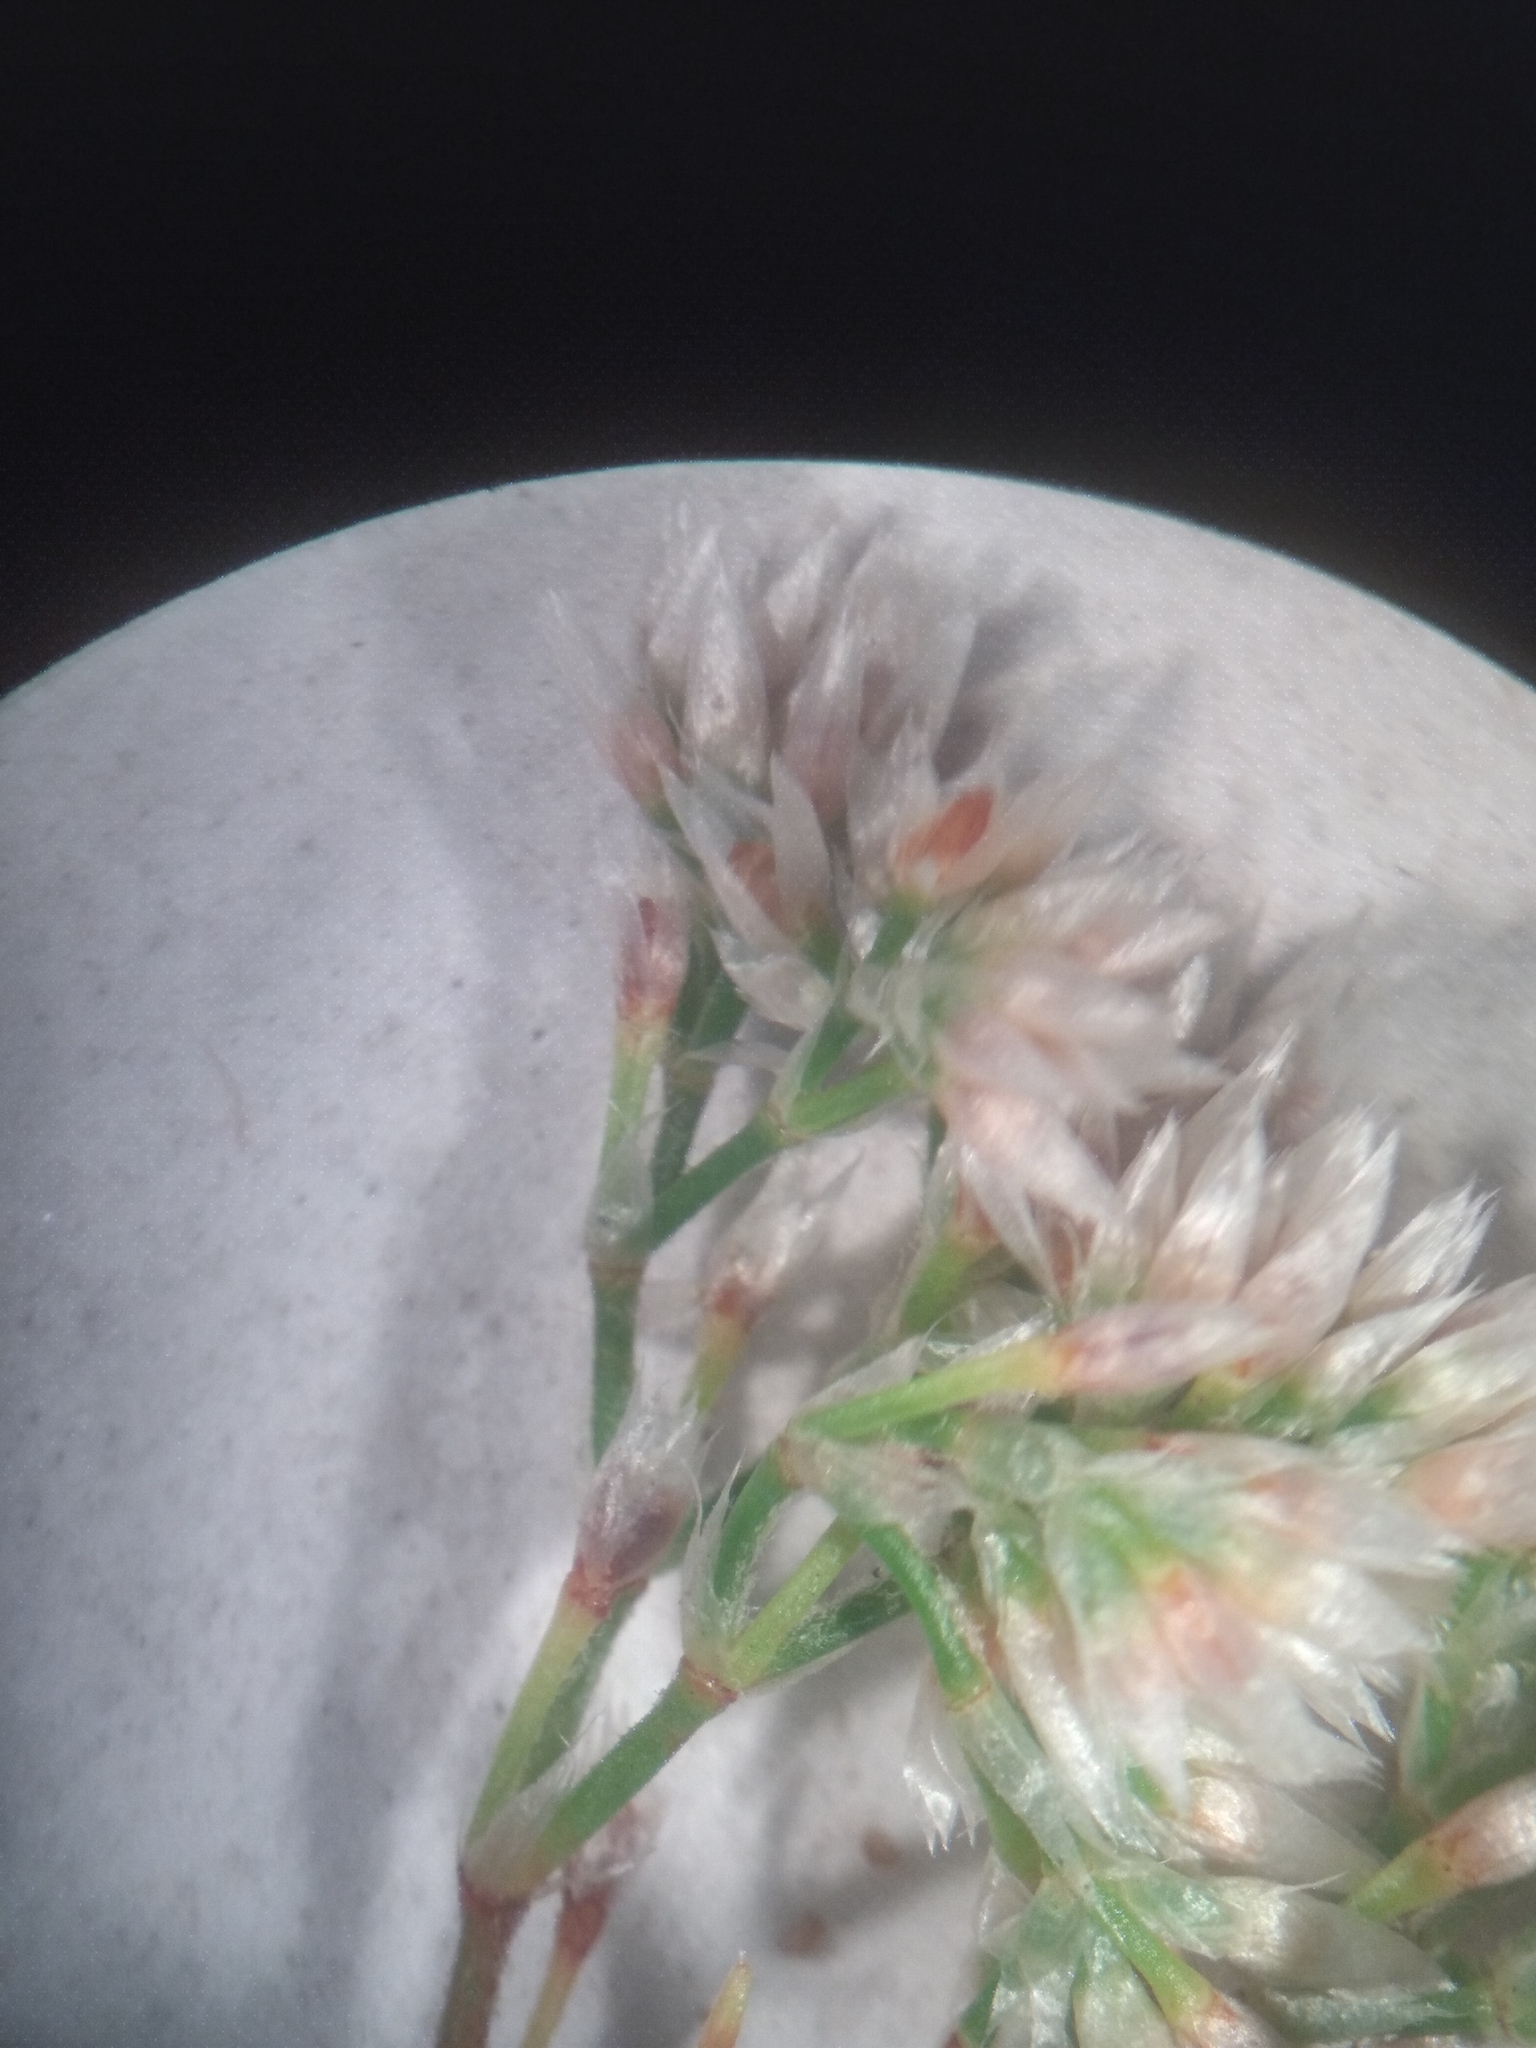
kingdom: Plantae
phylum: Tracheophyta
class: Magnoliopsida
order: Caryophyllales
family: Caryophyllaceae
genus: Polycarpaea
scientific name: Polycarpaea corymbosa
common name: Oldman's cap
